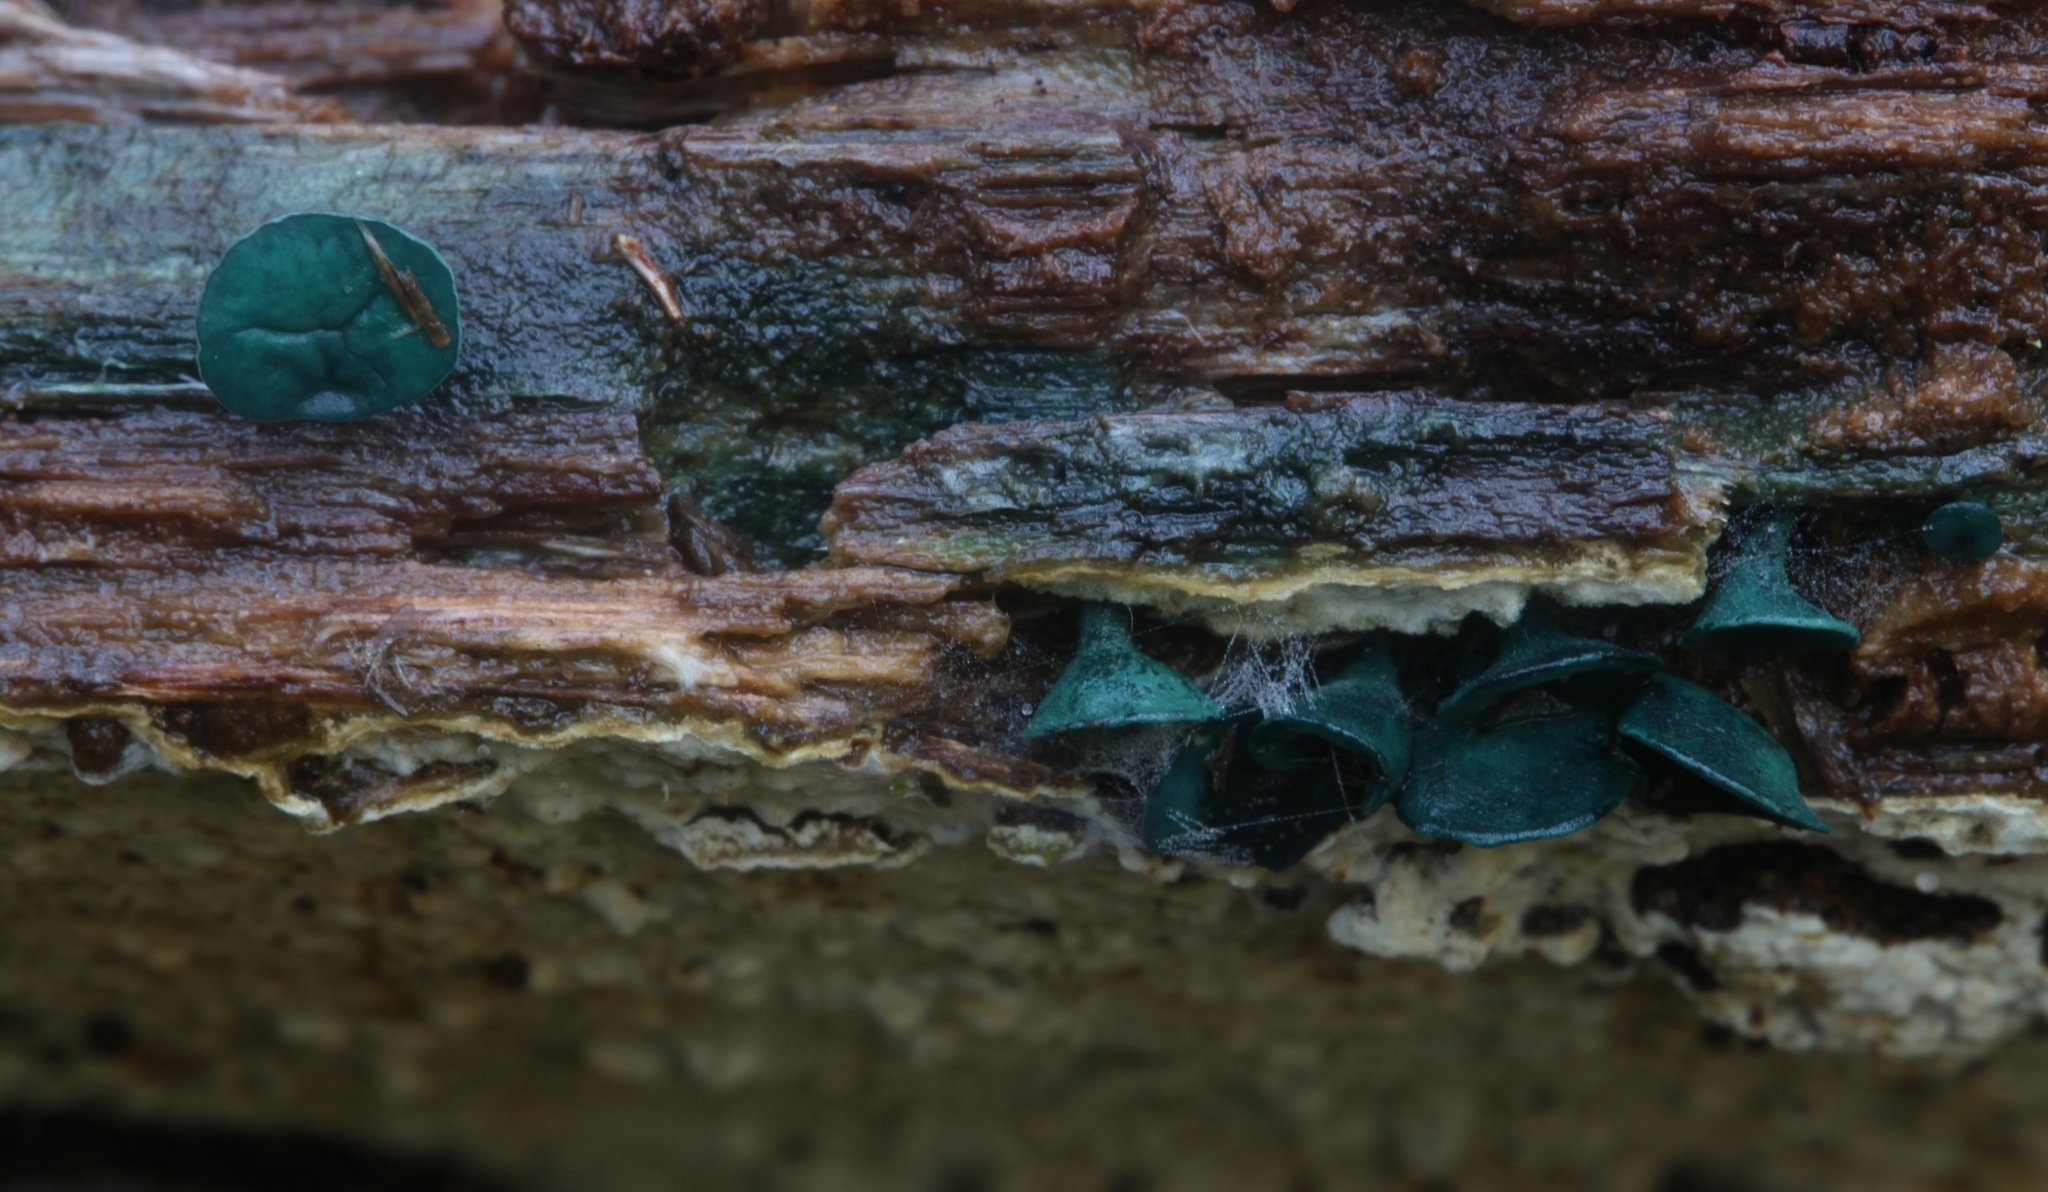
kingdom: Fungi
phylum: Ascomycota
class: Leotiomycetes
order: Helotiales
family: Chlorociboriaceae
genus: Chlorociboria
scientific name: Chlorociboria
